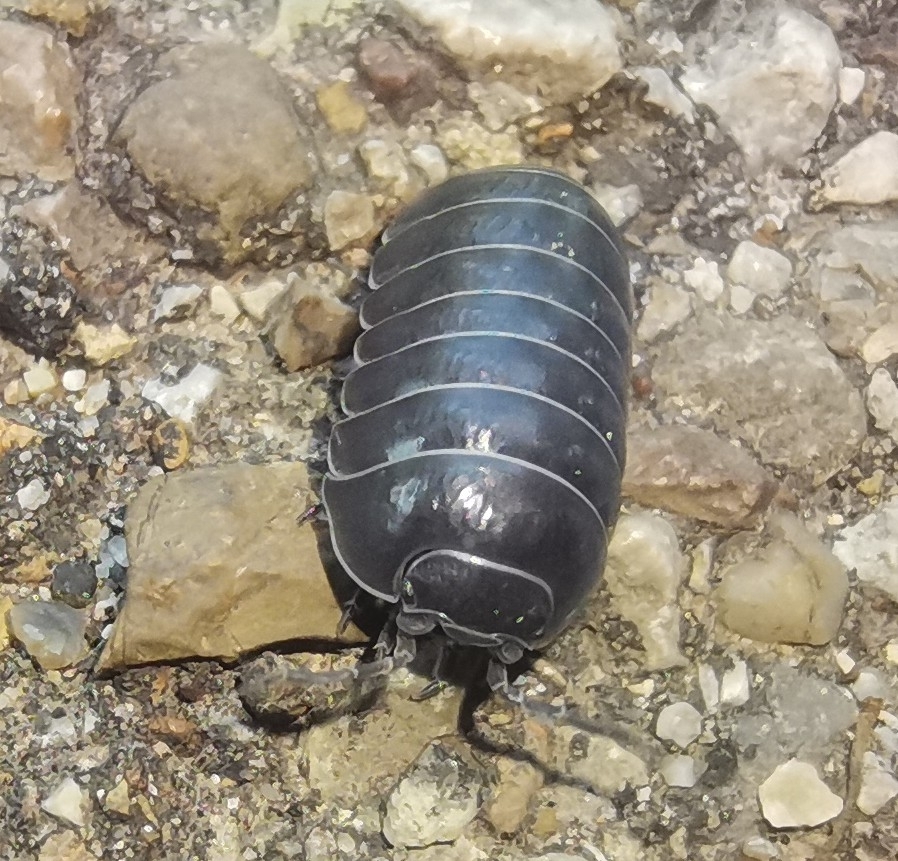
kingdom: Animalia
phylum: Arthropoda
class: Malacostraca
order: Isopoda
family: Armadillidiidae
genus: Armadillidium
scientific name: Armadillidium vulgare
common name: Common pill woodlouse
